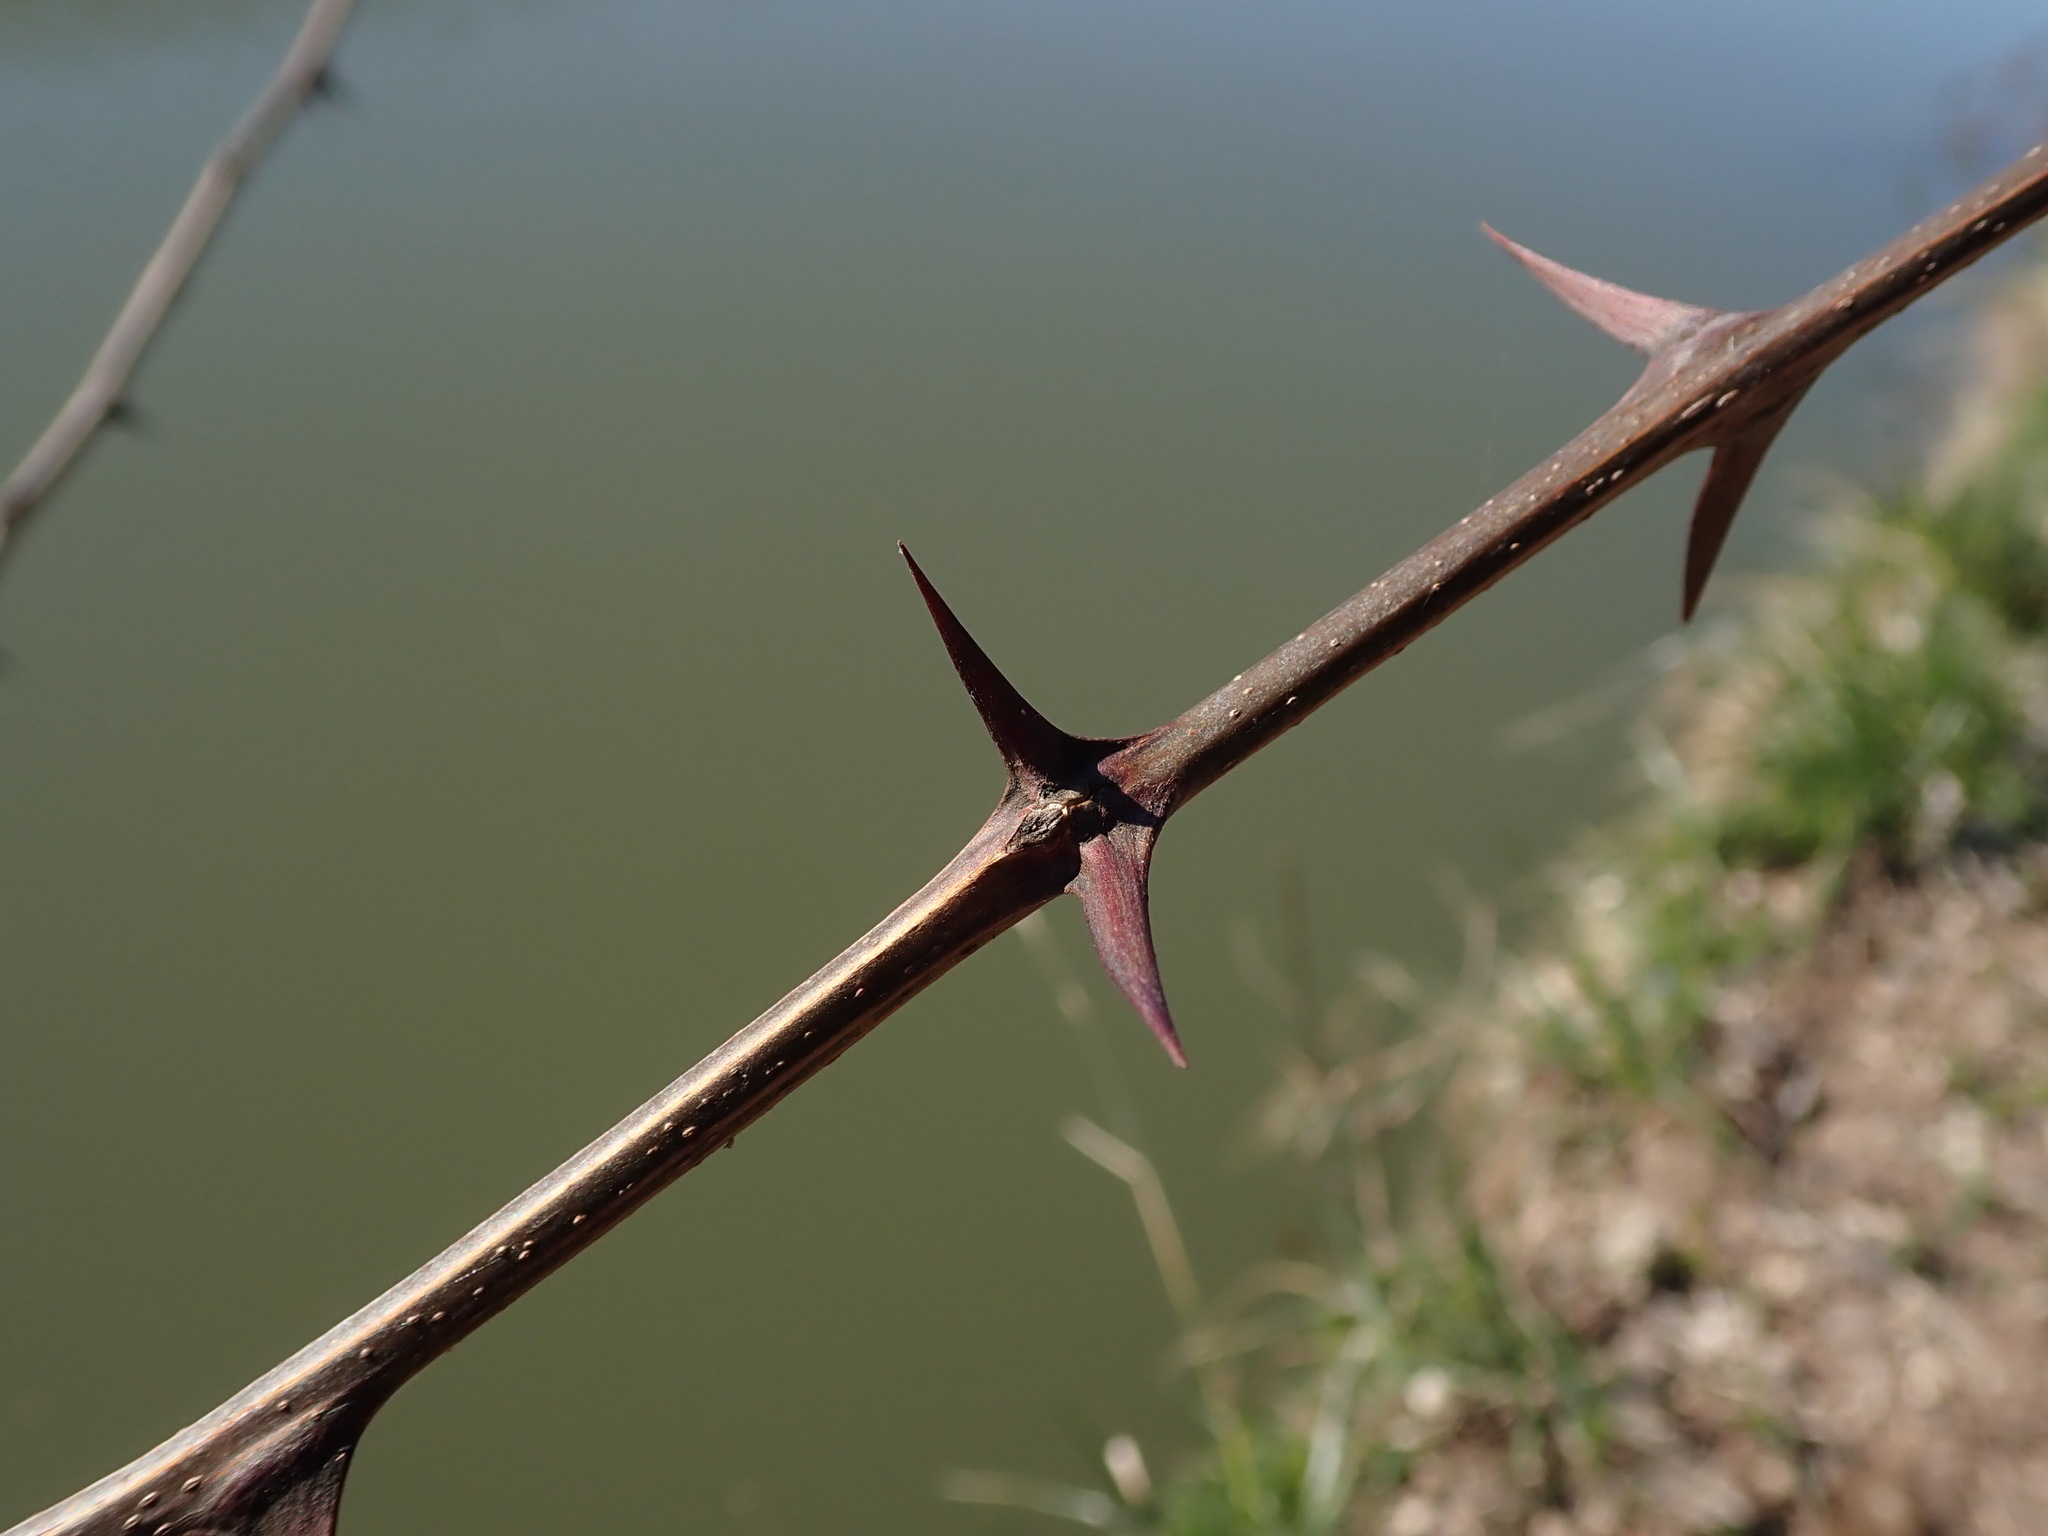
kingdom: Plantae
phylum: Tracheophyta
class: Magnoliopsida
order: Fabales
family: Fabaceae
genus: Robinia
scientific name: Robinia pseudoacacia
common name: Black locust
